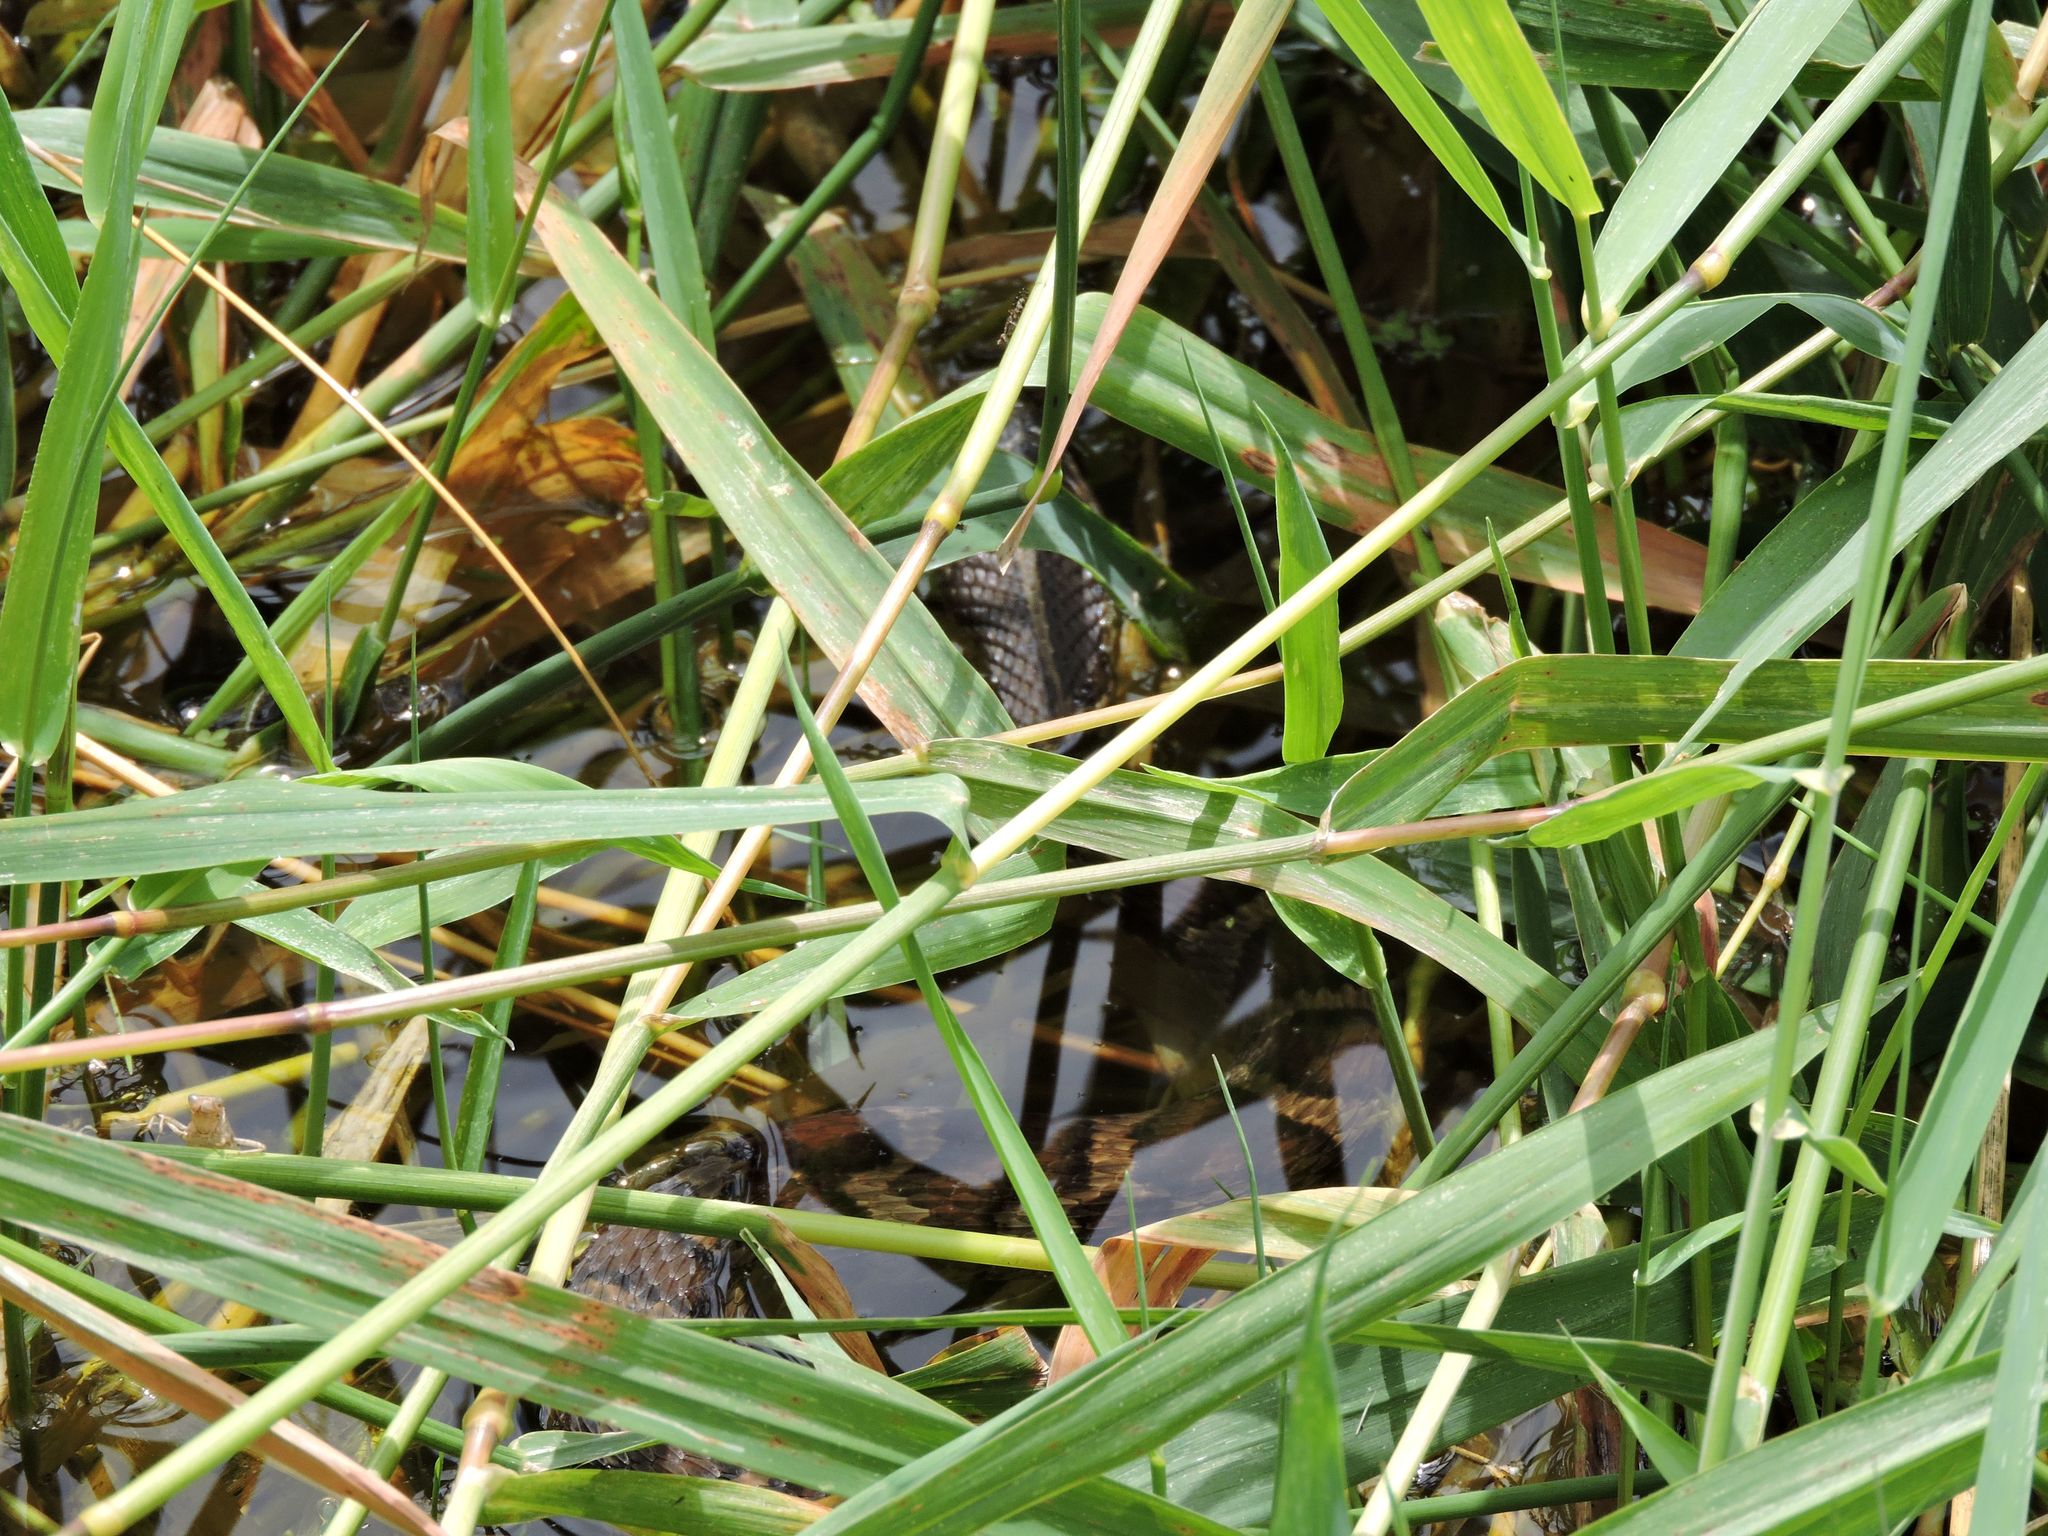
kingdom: Animalia
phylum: Chordata
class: Squamata
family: Colubridae
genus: Nerodia
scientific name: Nerodia sipedon
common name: Northern water snake
